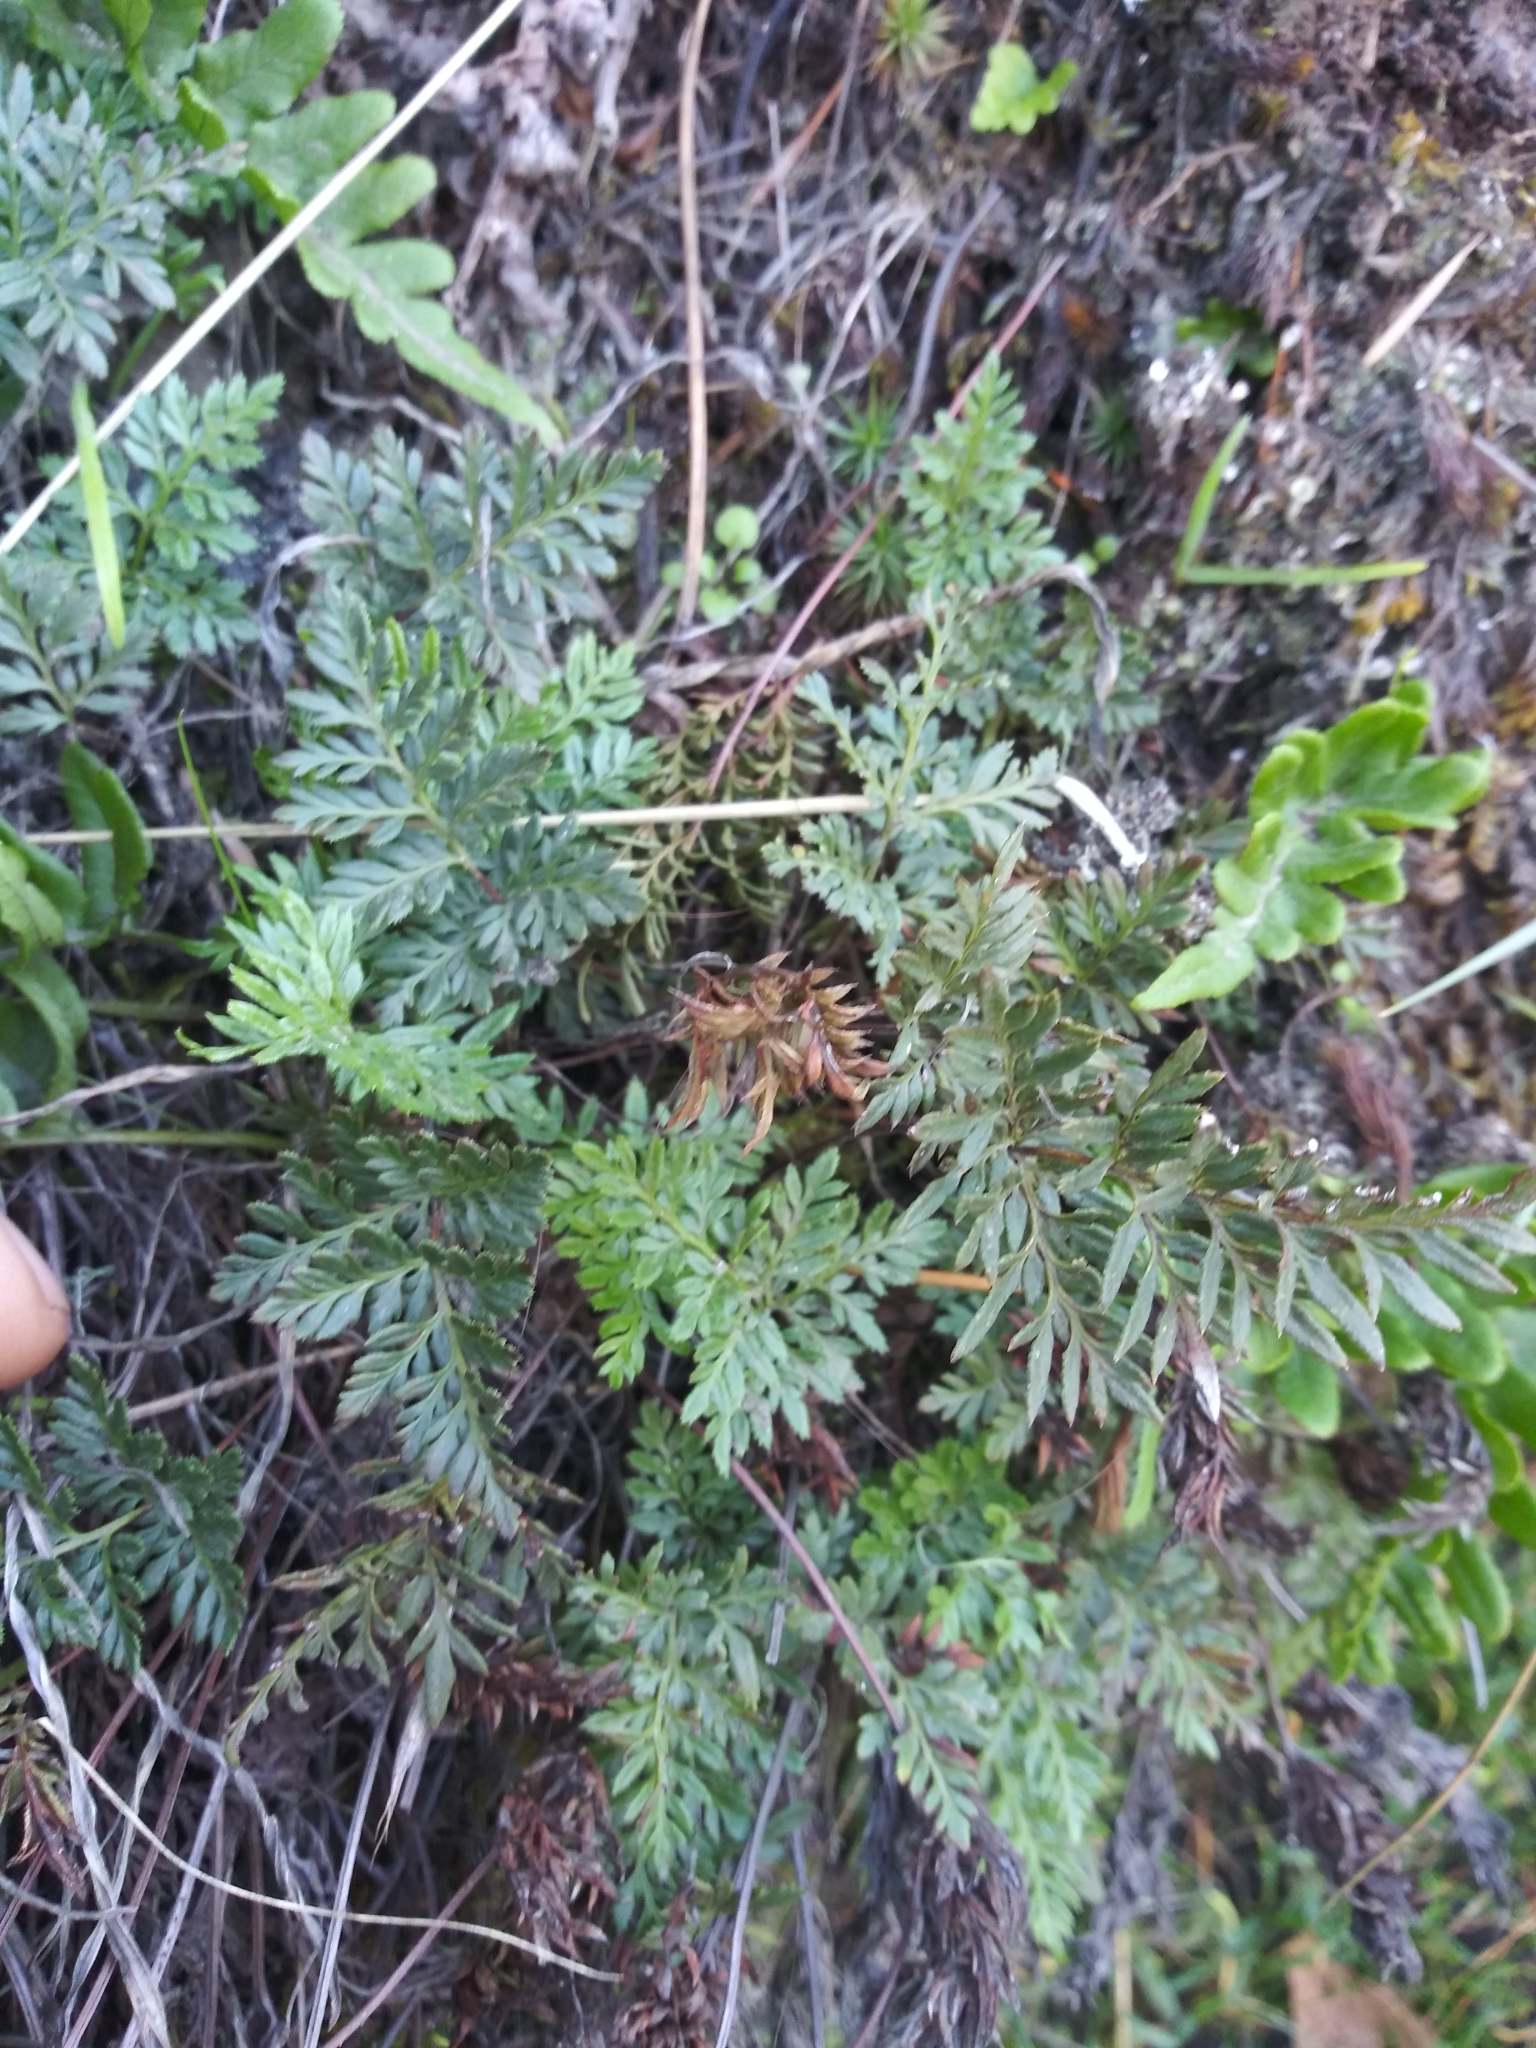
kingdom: Plantae
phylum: Tracheophyta
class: Polypodiopsida
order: Polypodiales
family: Pteridaceae
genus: Aspidotis
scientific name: Aspidotis densa
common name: Indian's dream
